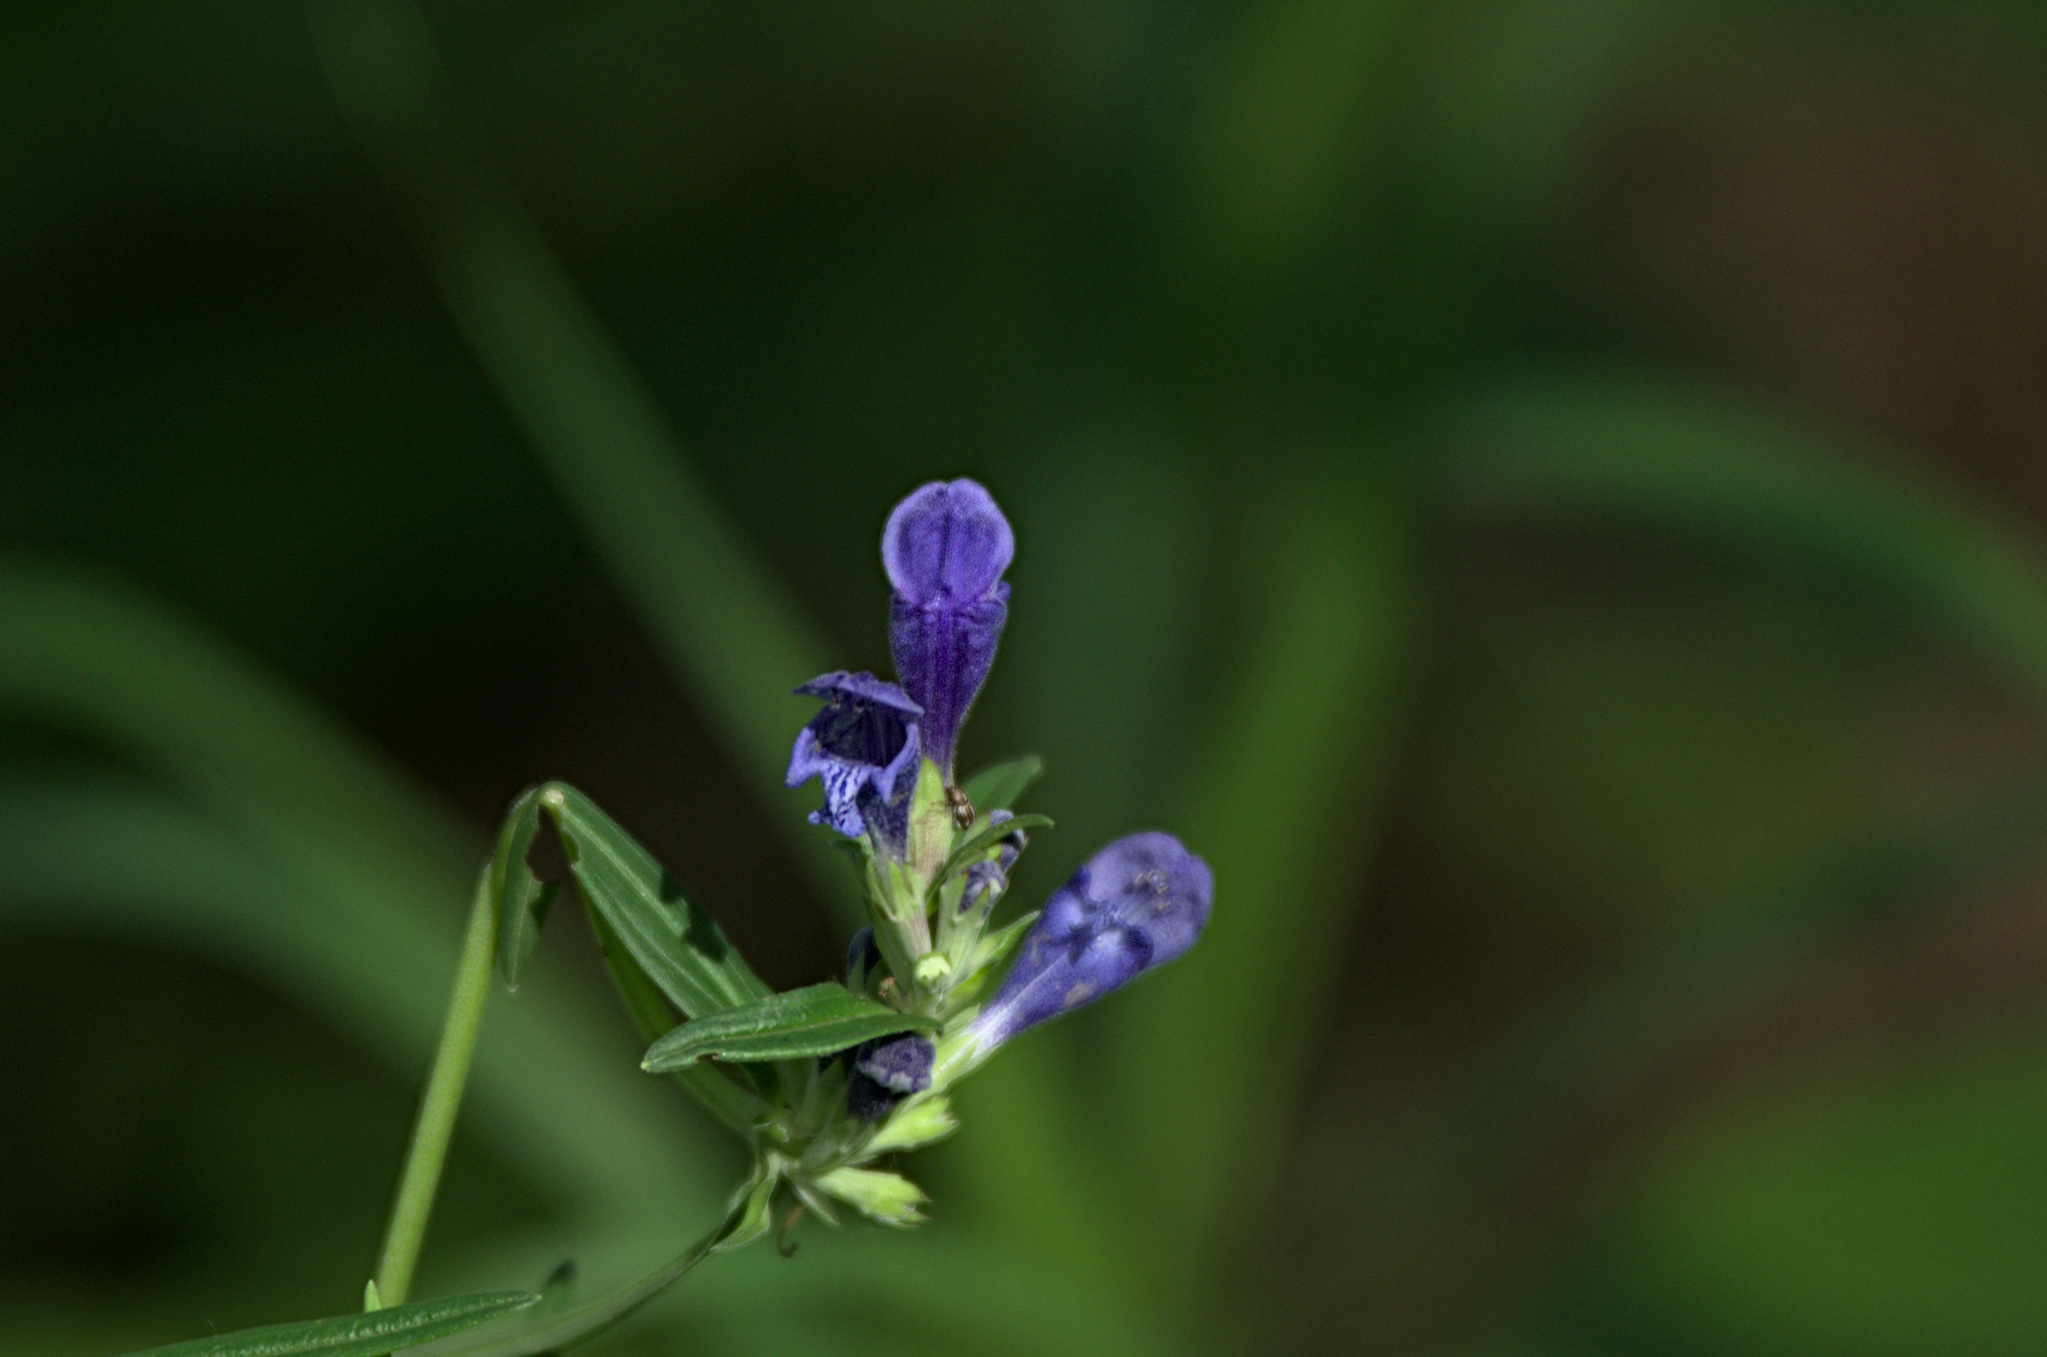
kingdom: Plantae
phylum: Tracheophyta
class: Magnoliopsida
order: Lamiales
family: Lamiaceae
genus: Dracocephalum
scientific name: Dracocephalum ruyschiana
